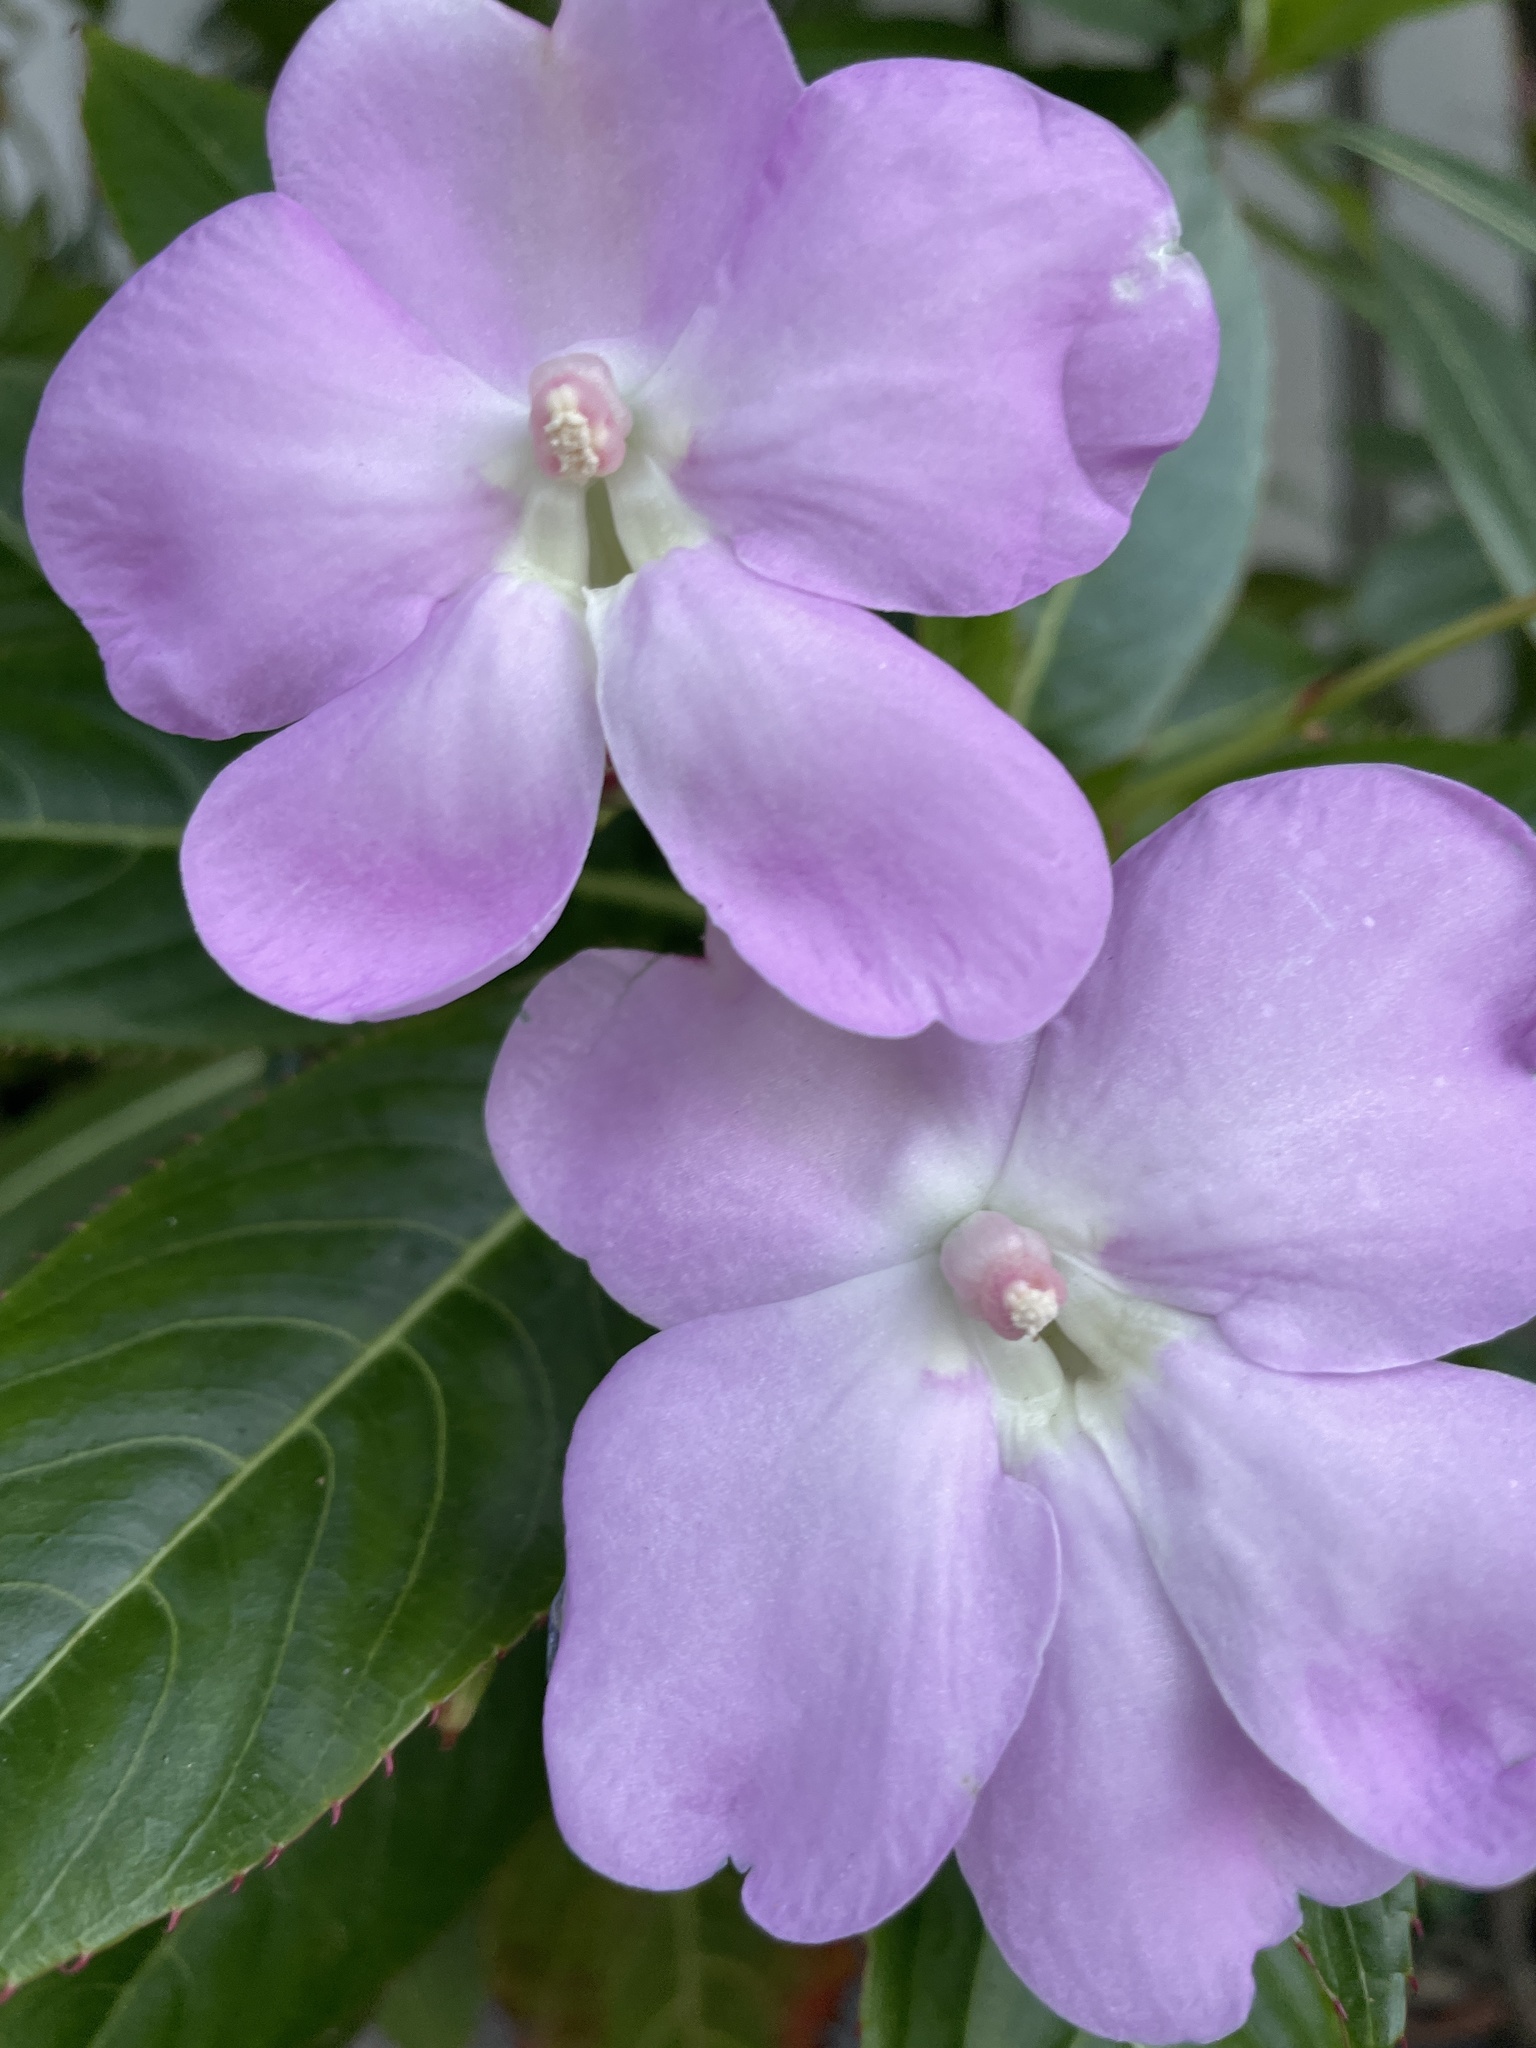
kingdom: Plantae
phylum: Tracheophyta
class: Magnoliopsida
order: Ericales
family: Balsaminaceae
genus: Impatiens
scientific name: Impatiens sodenii
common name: Oliver's touch-me-not
